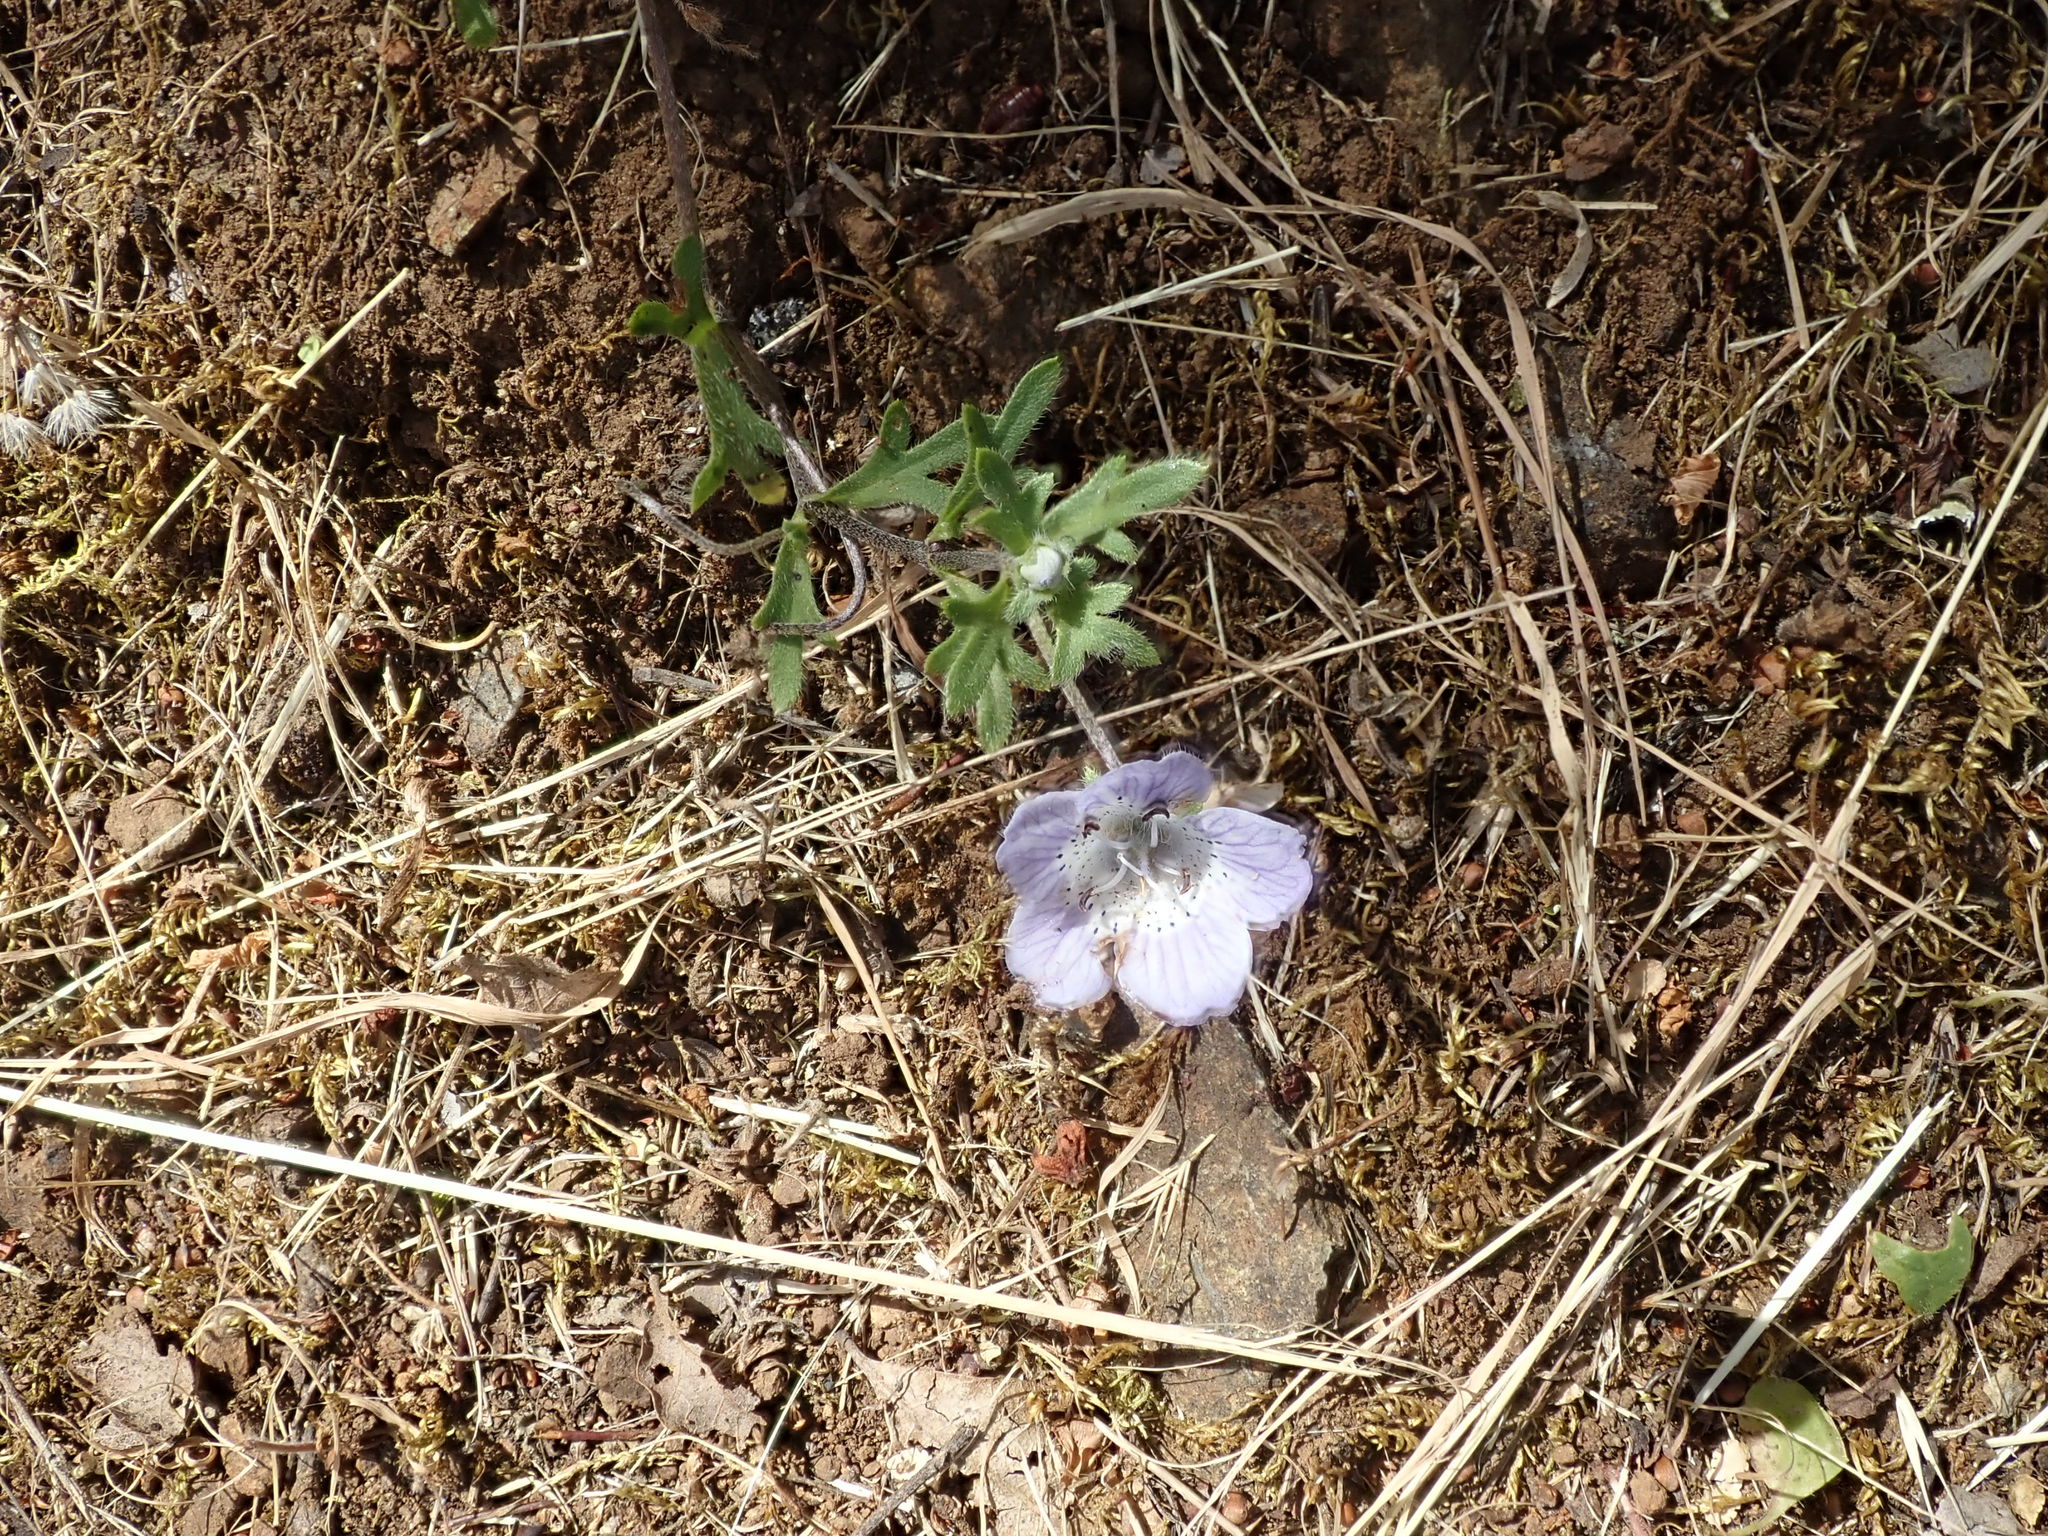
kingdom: Plantae
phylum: Tracheophyta
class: Magnoliopsida
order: Boraginales
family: Hydrophyllaceae
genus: Nemophila
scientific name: Nemophila menziesii
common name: Baby's-blue-eyes
